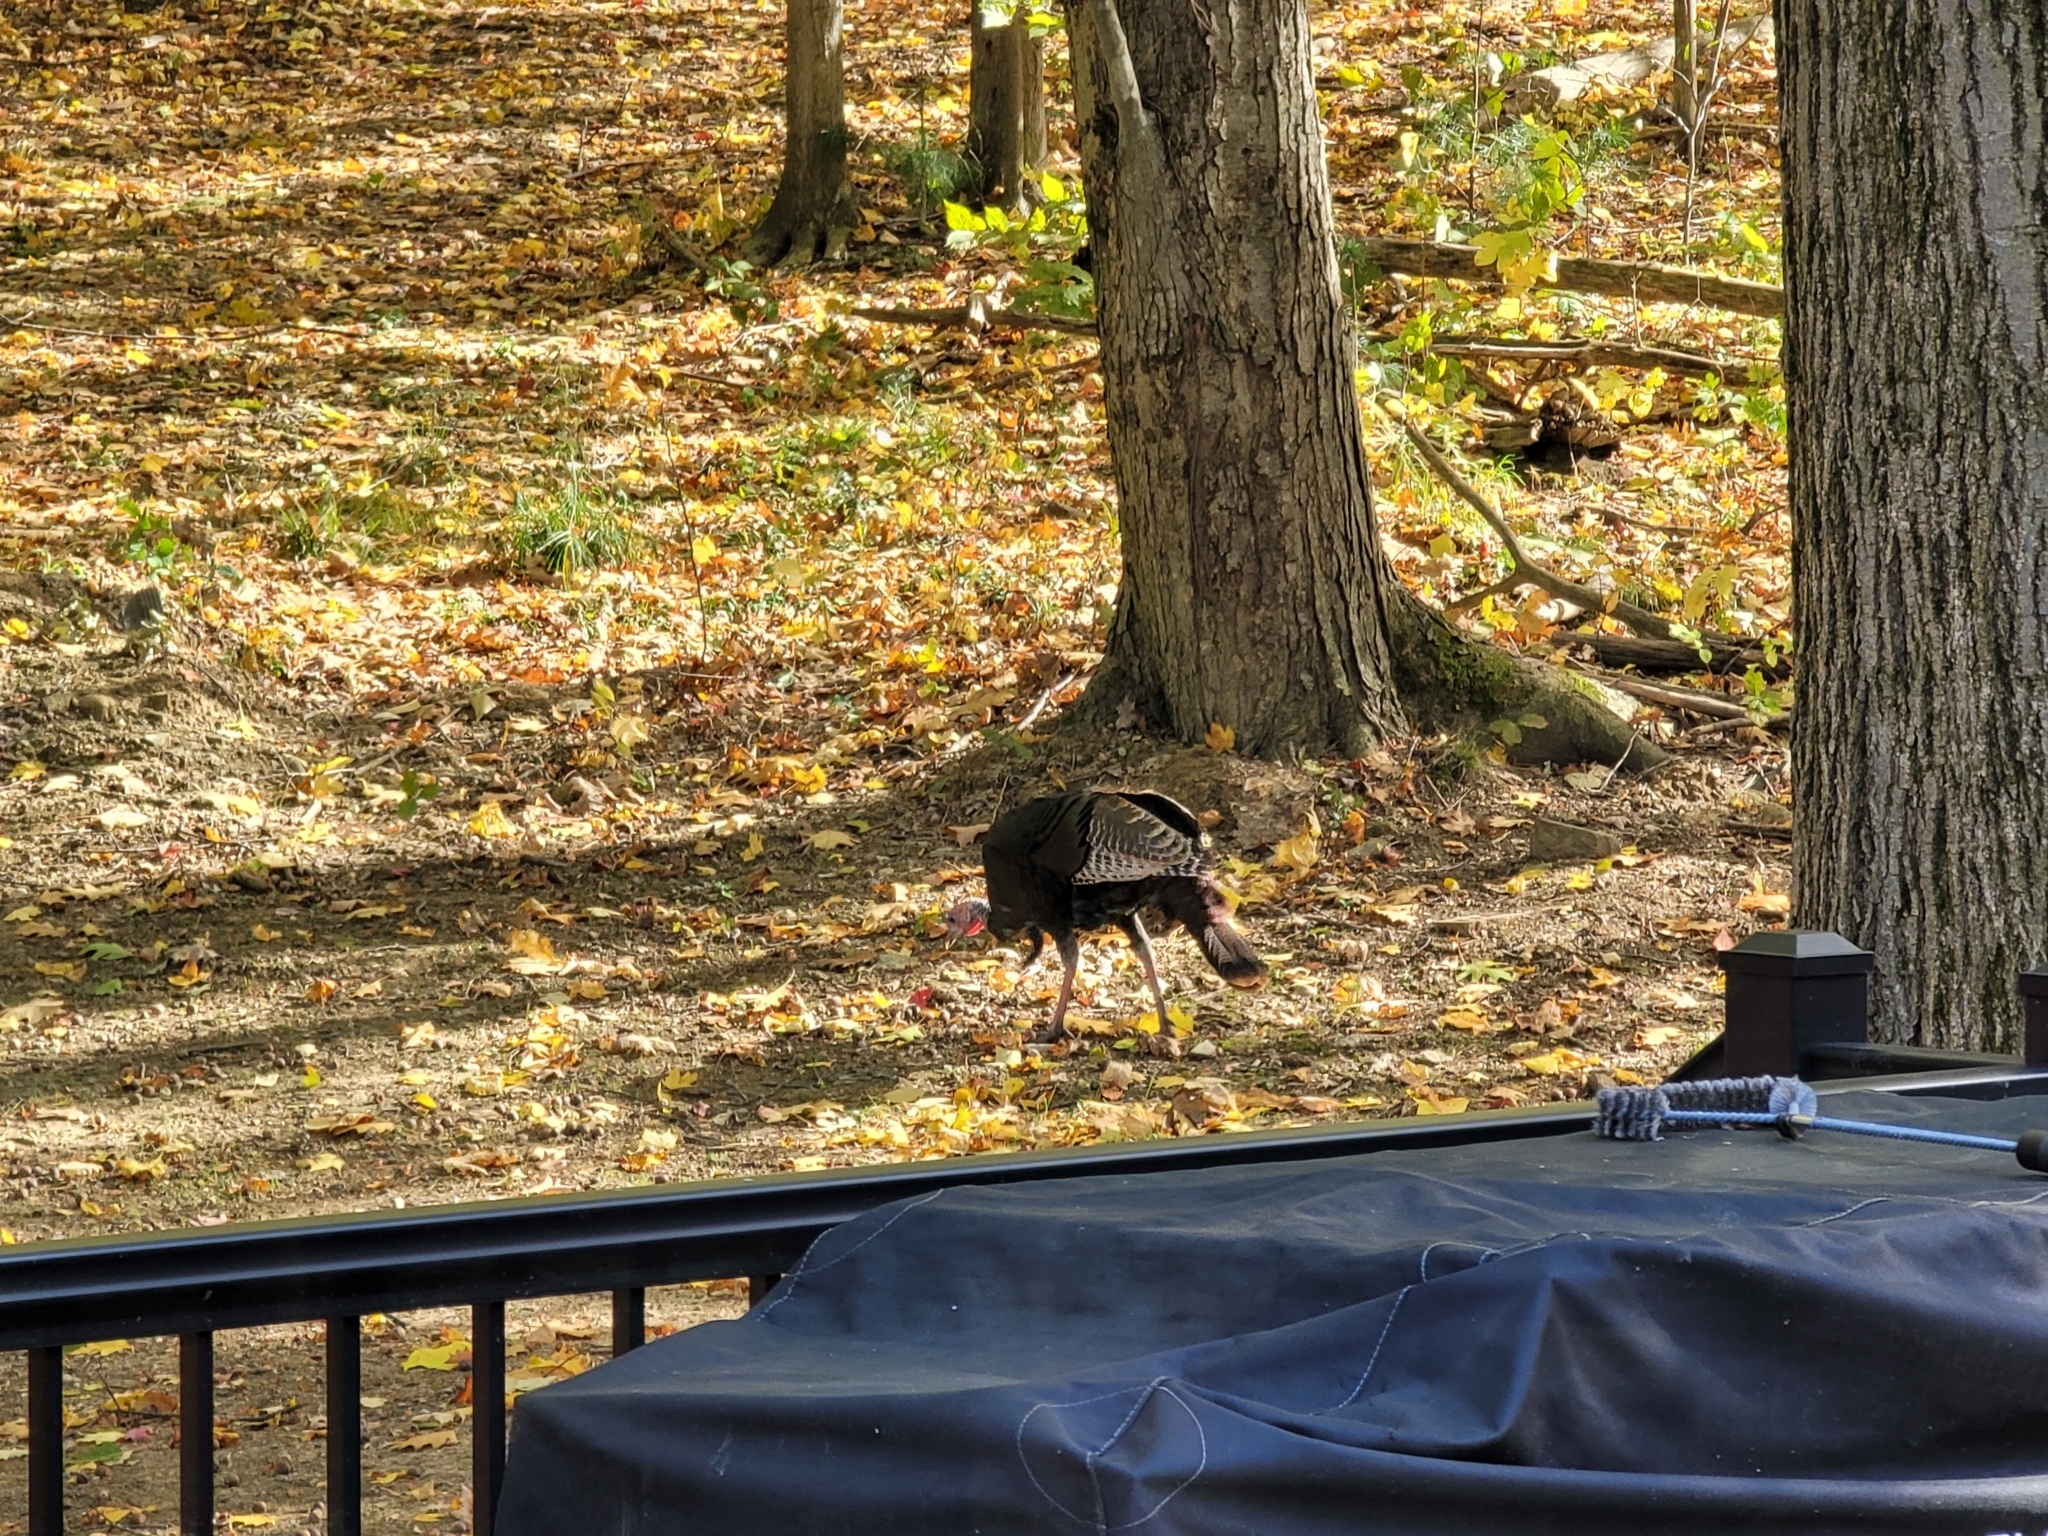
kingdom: Animalia
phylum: Chordata
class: Aves
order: Galliformes
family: Phasianidae
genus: Meleagris
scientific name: Meleagris gallopavo
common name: Wild turkey
